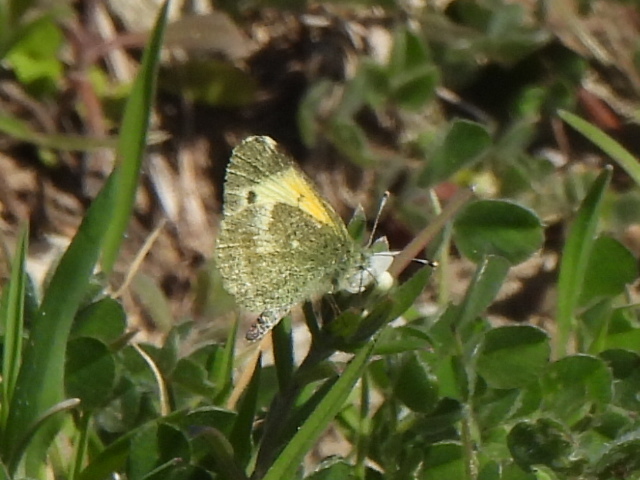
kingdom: Animalia
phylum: Arthropoda
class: Insecta
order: Lepidoptera
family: Pieridae
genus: Nathalis
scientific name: Nathalis iole
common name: Dainty sulphur
